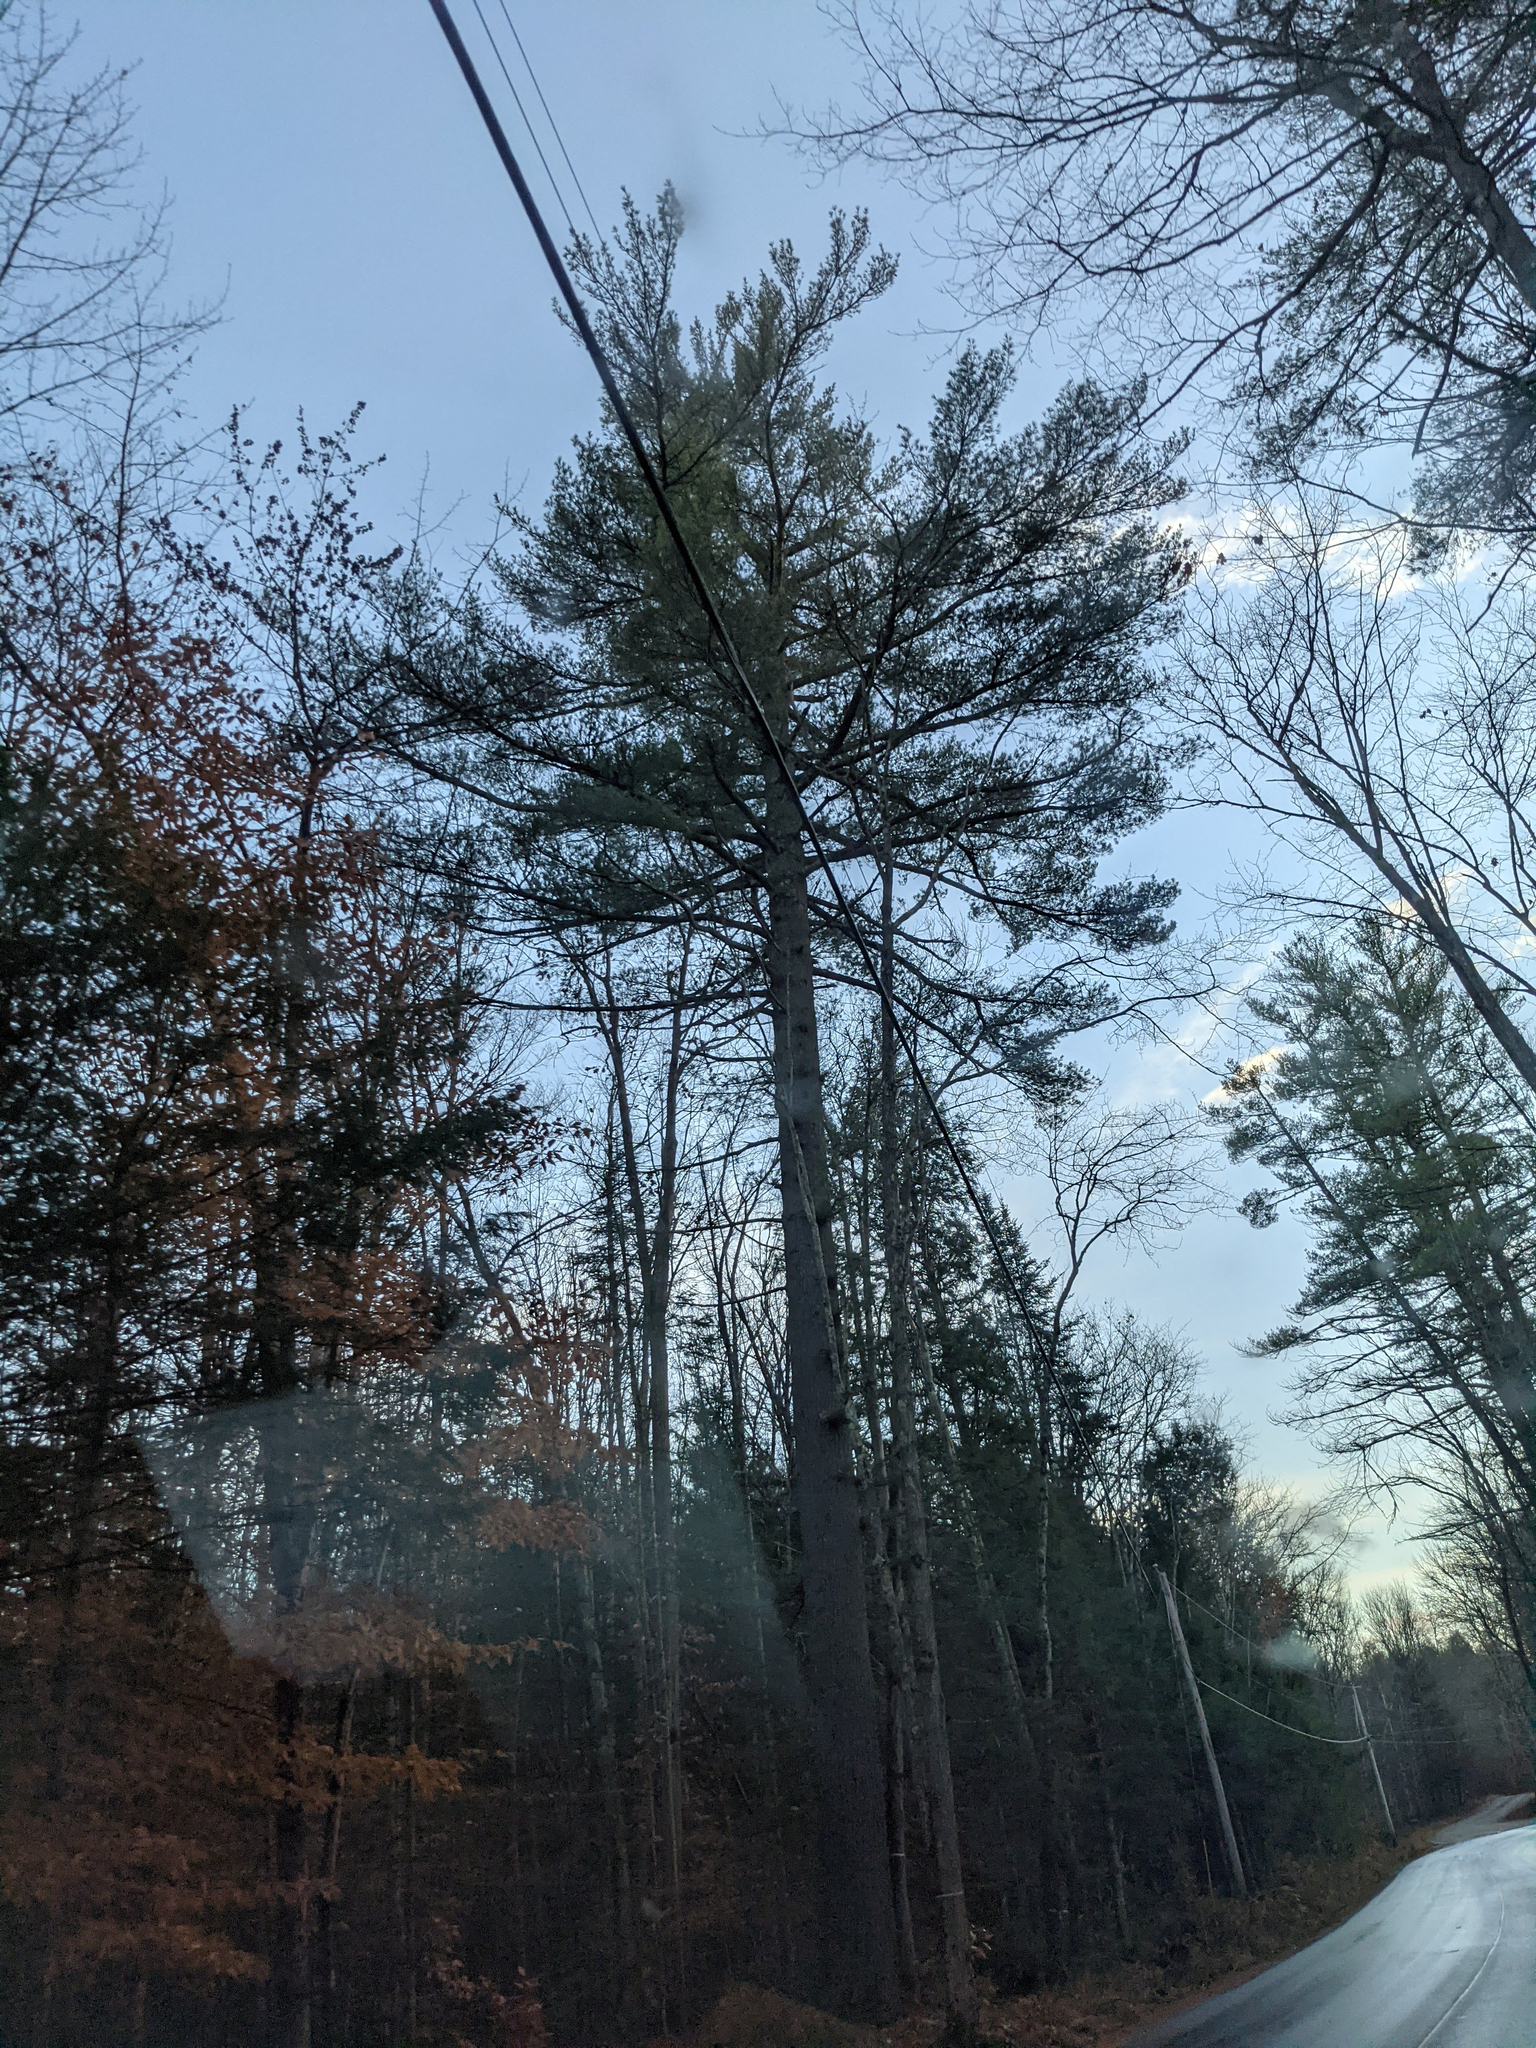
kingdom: Plantae
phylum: Tracheophyta
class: Pinopsida
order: Pinales
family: Pinaceae
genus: Pinus
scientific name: Pinus strobus
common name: Weymouth pine
